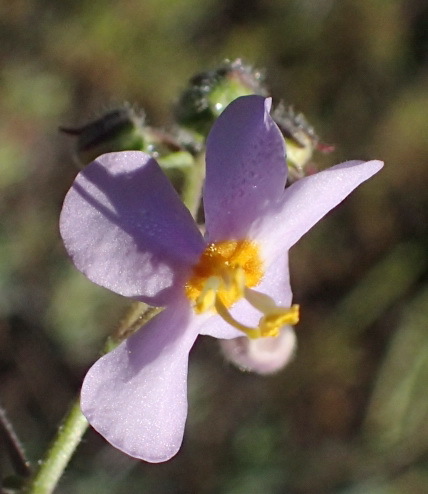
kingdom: Plantae
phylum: Tracheophyta
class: Magnoliopsida
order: Lamiales
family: Scrophulariaceae
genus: Chaenostoma
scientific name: Chaenostoma caeruleum
